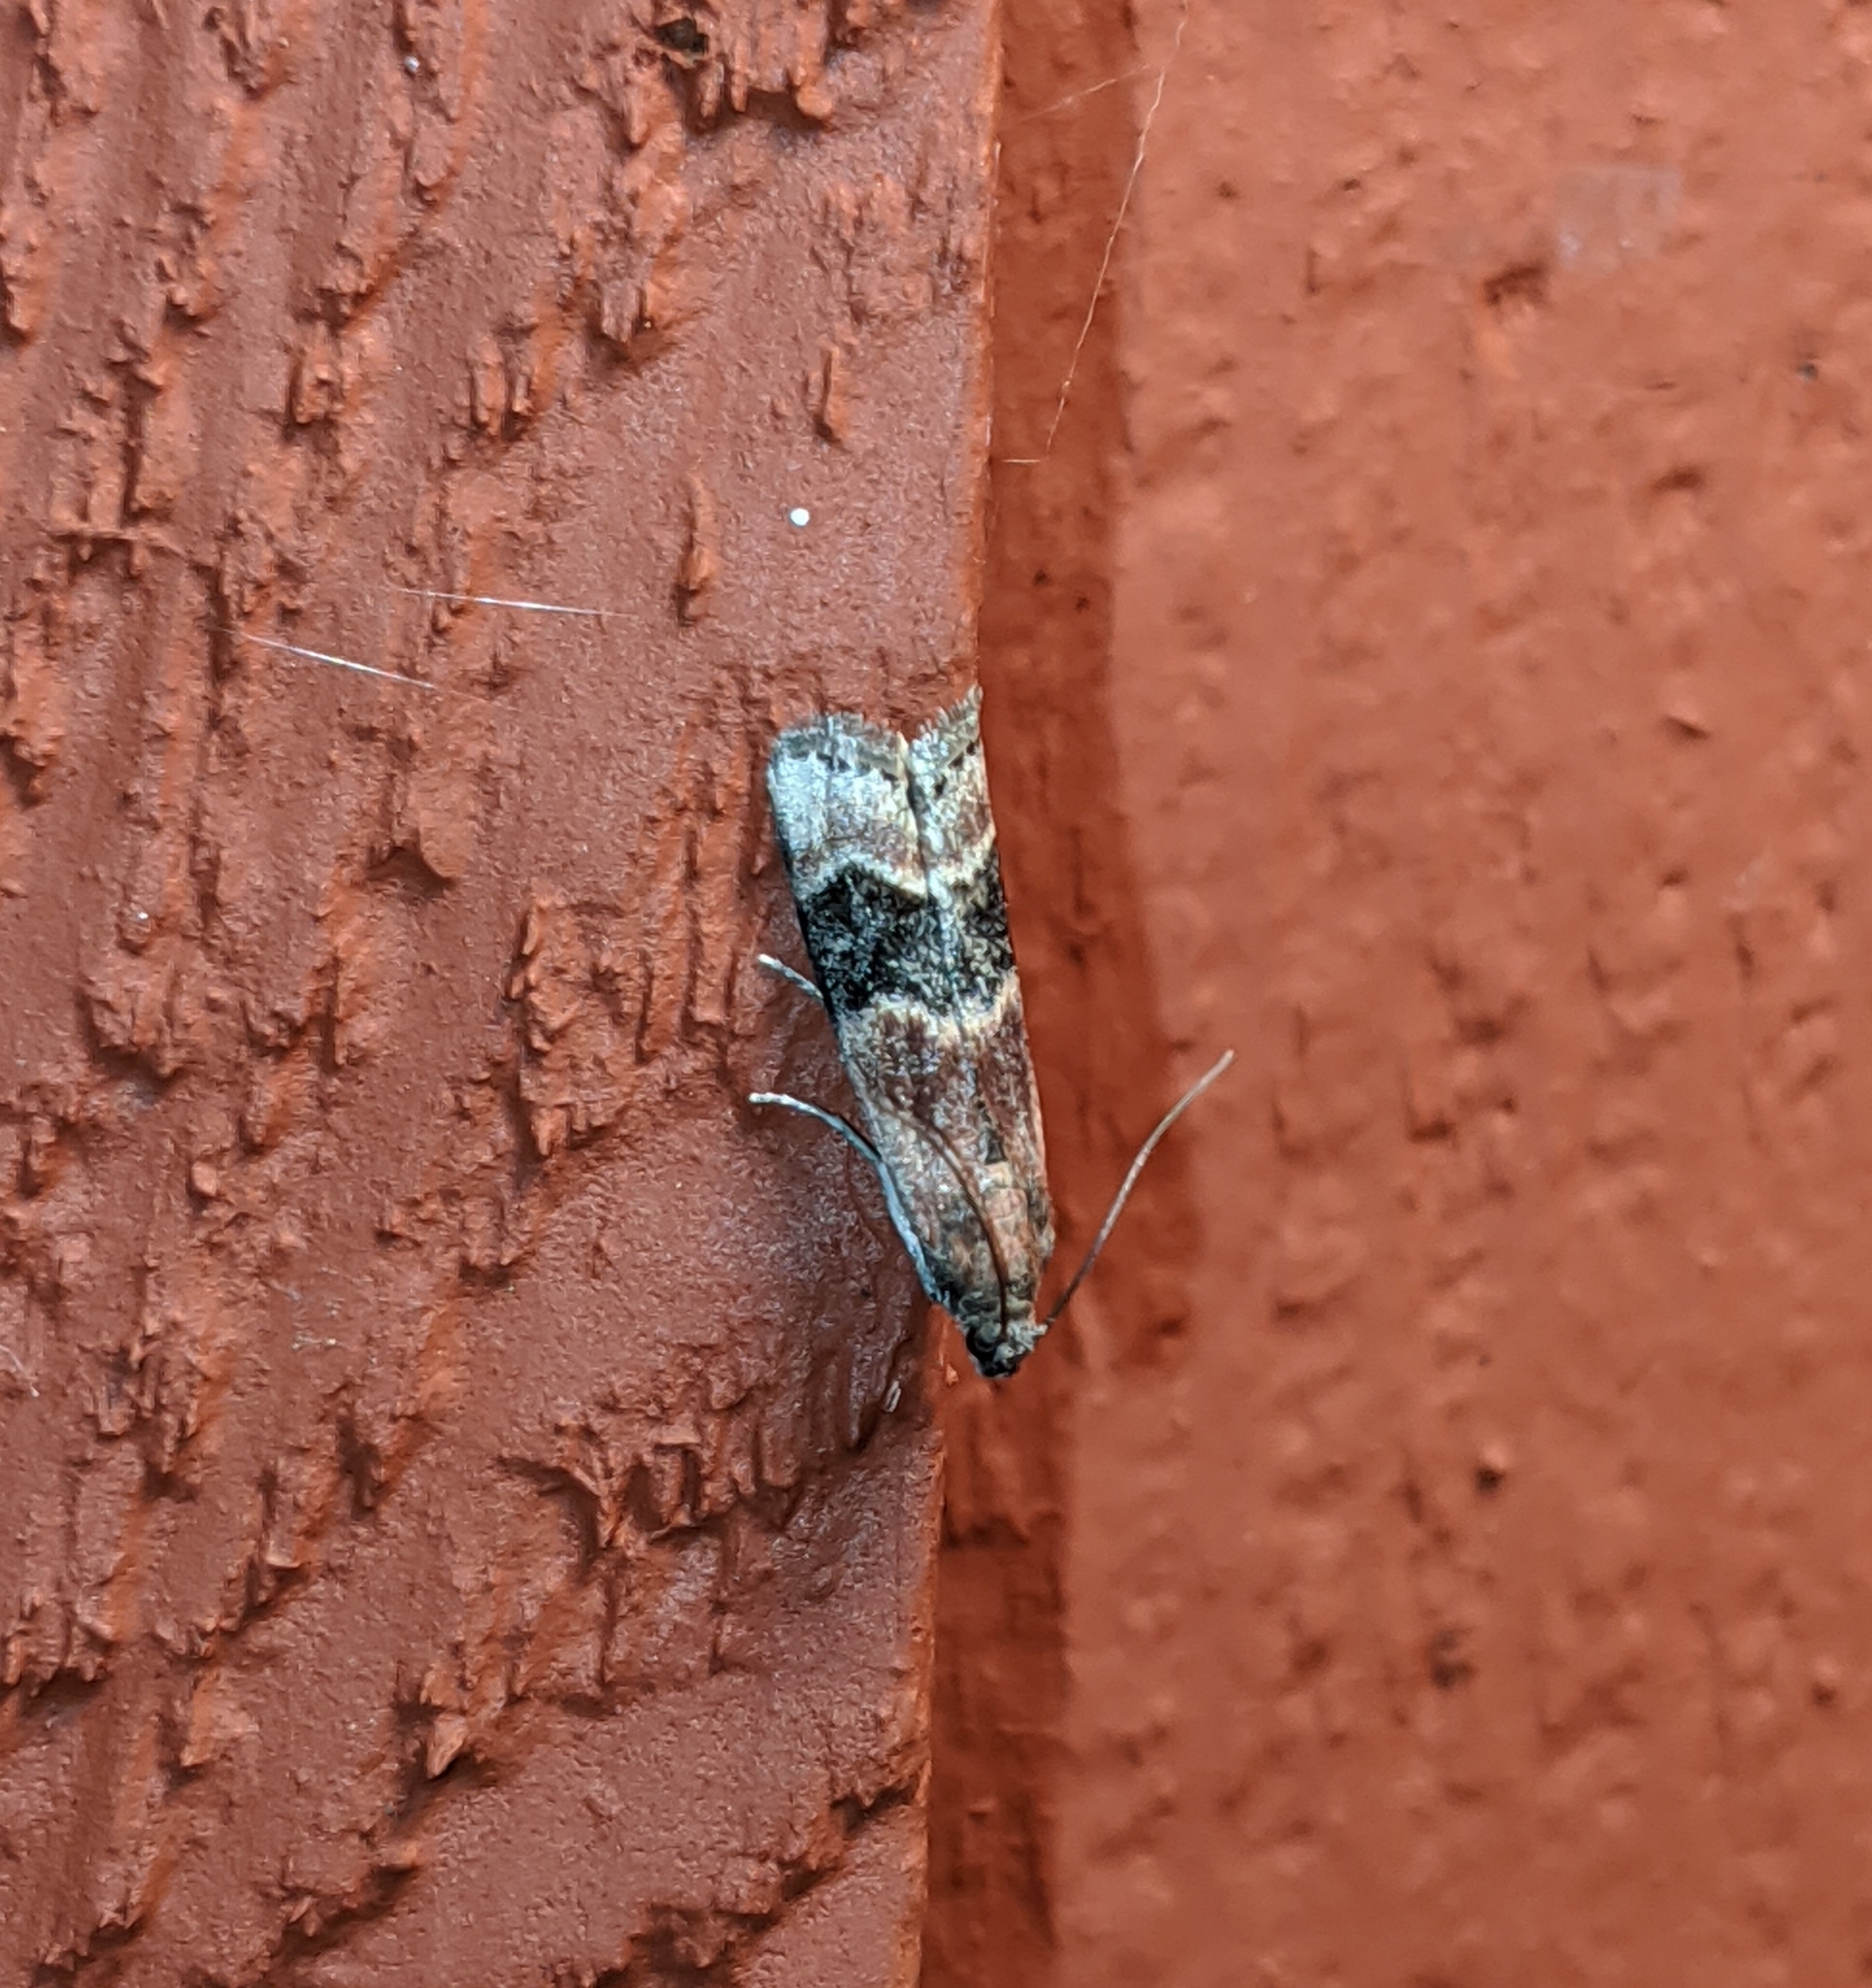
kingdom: Animalia
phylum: Arthropoda
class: Insecta
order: Lepidoptera
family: Pyralidae
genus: Euzophera
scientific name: Euzophera semifuneralis
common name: American plum borer moth
